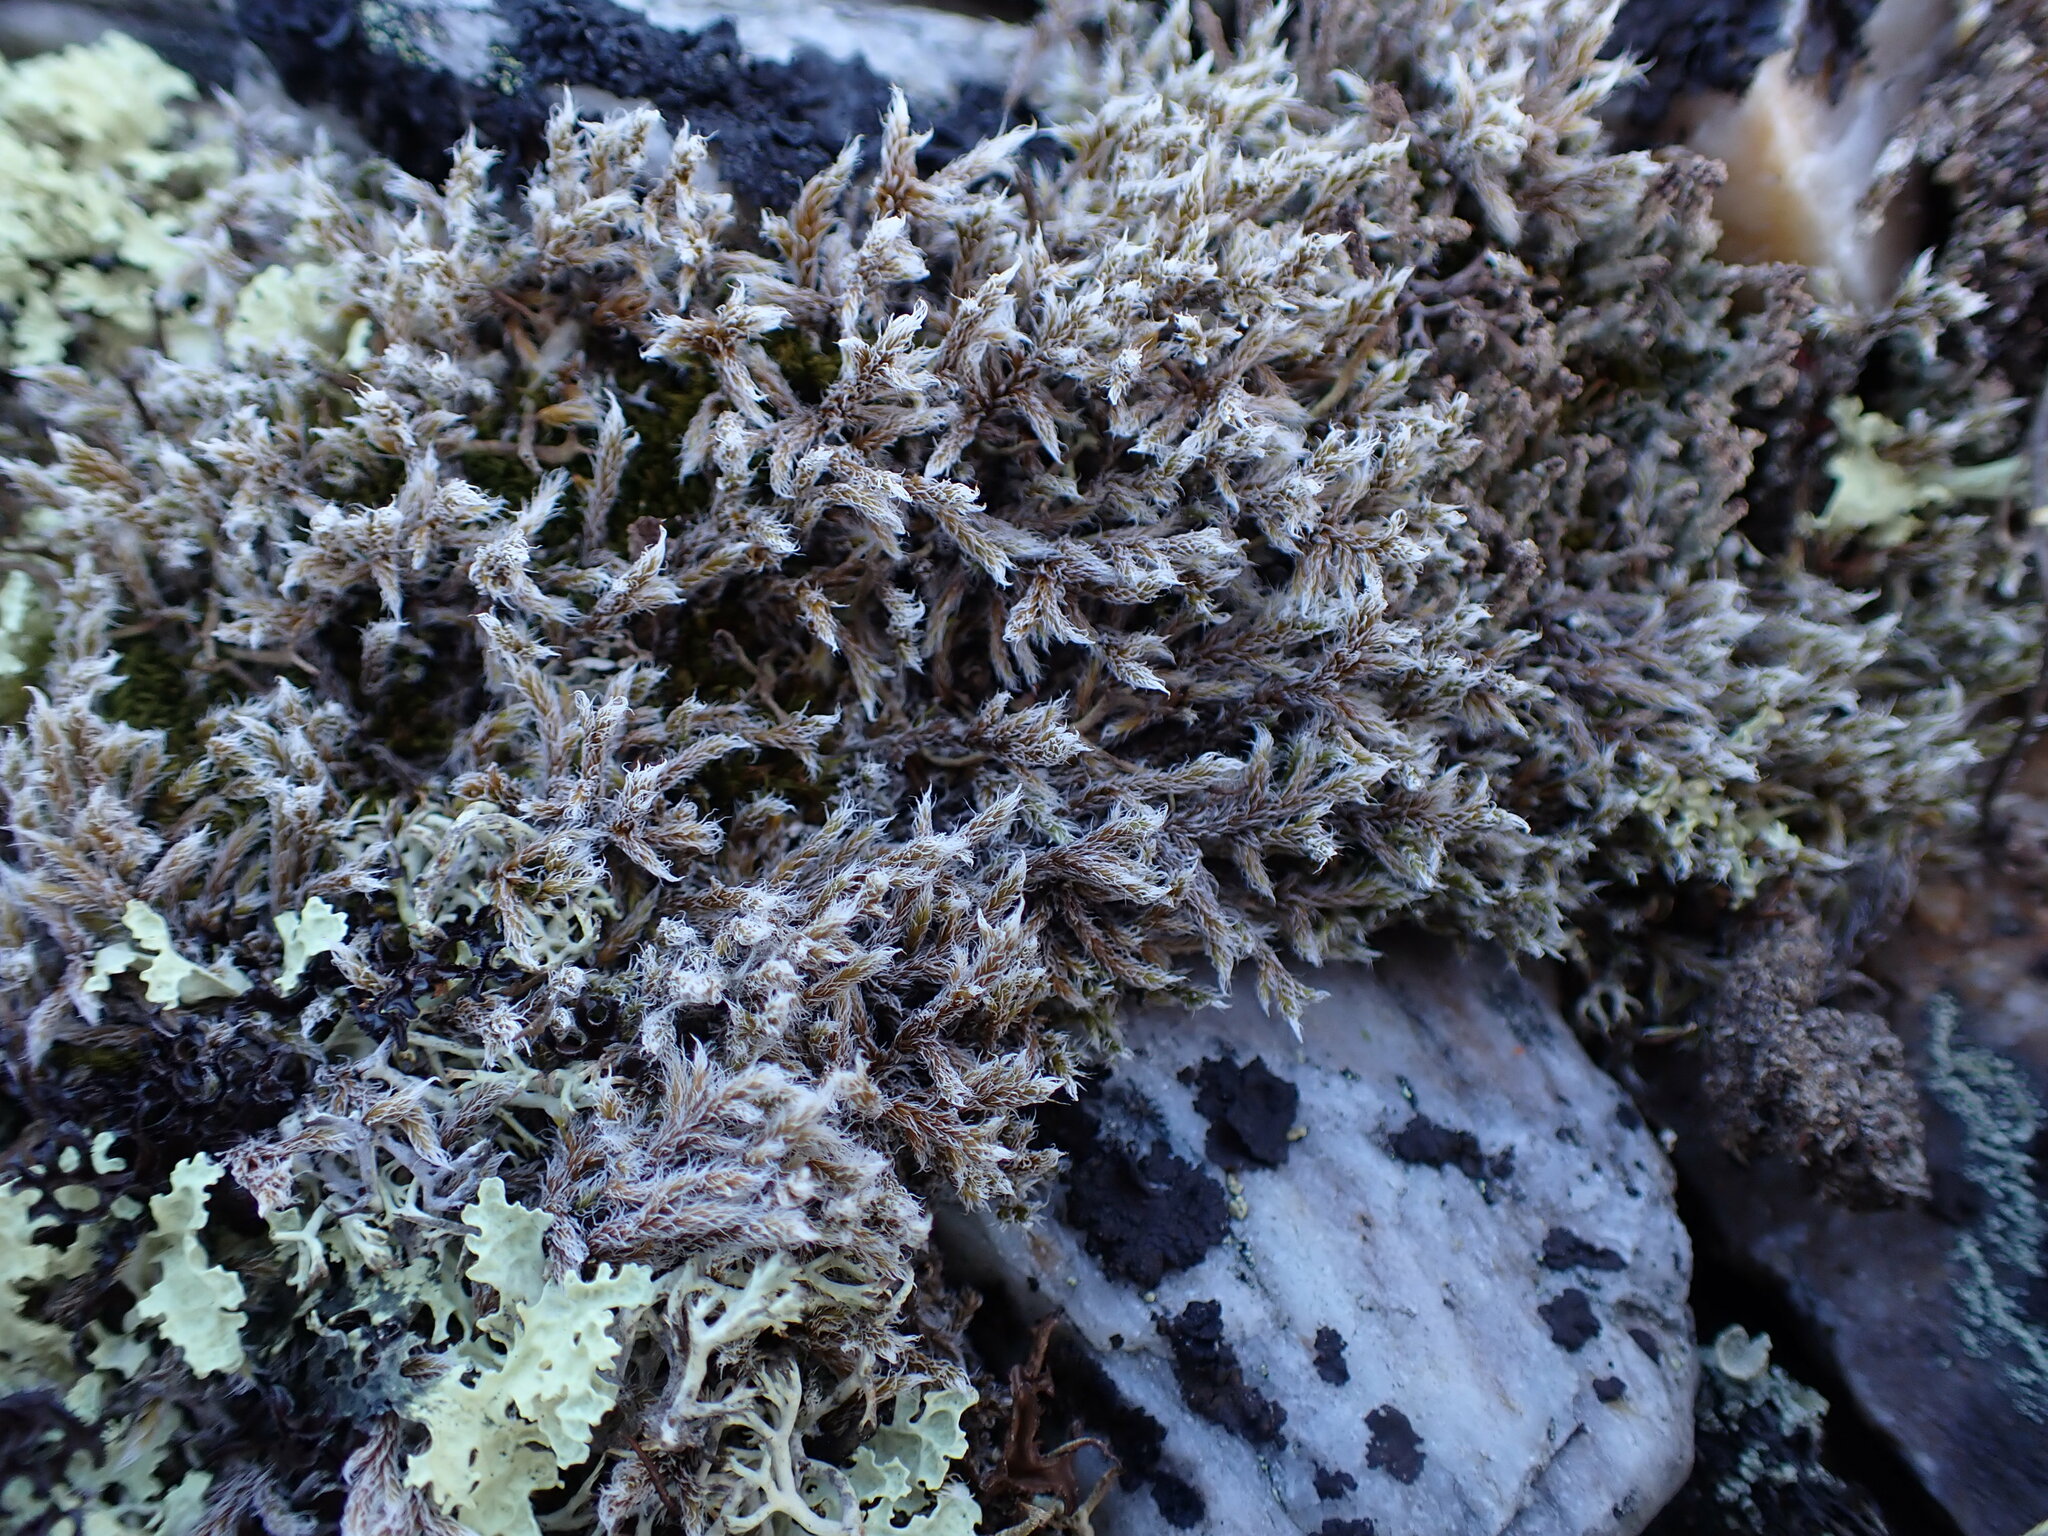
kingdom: Plantae
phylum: Bryophyta
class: Bryopsida
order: Grimmiales
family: Grimmiaceae
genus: Racomitrium
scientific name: Racomitrium lanuginosum
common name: Hoary rock moss
